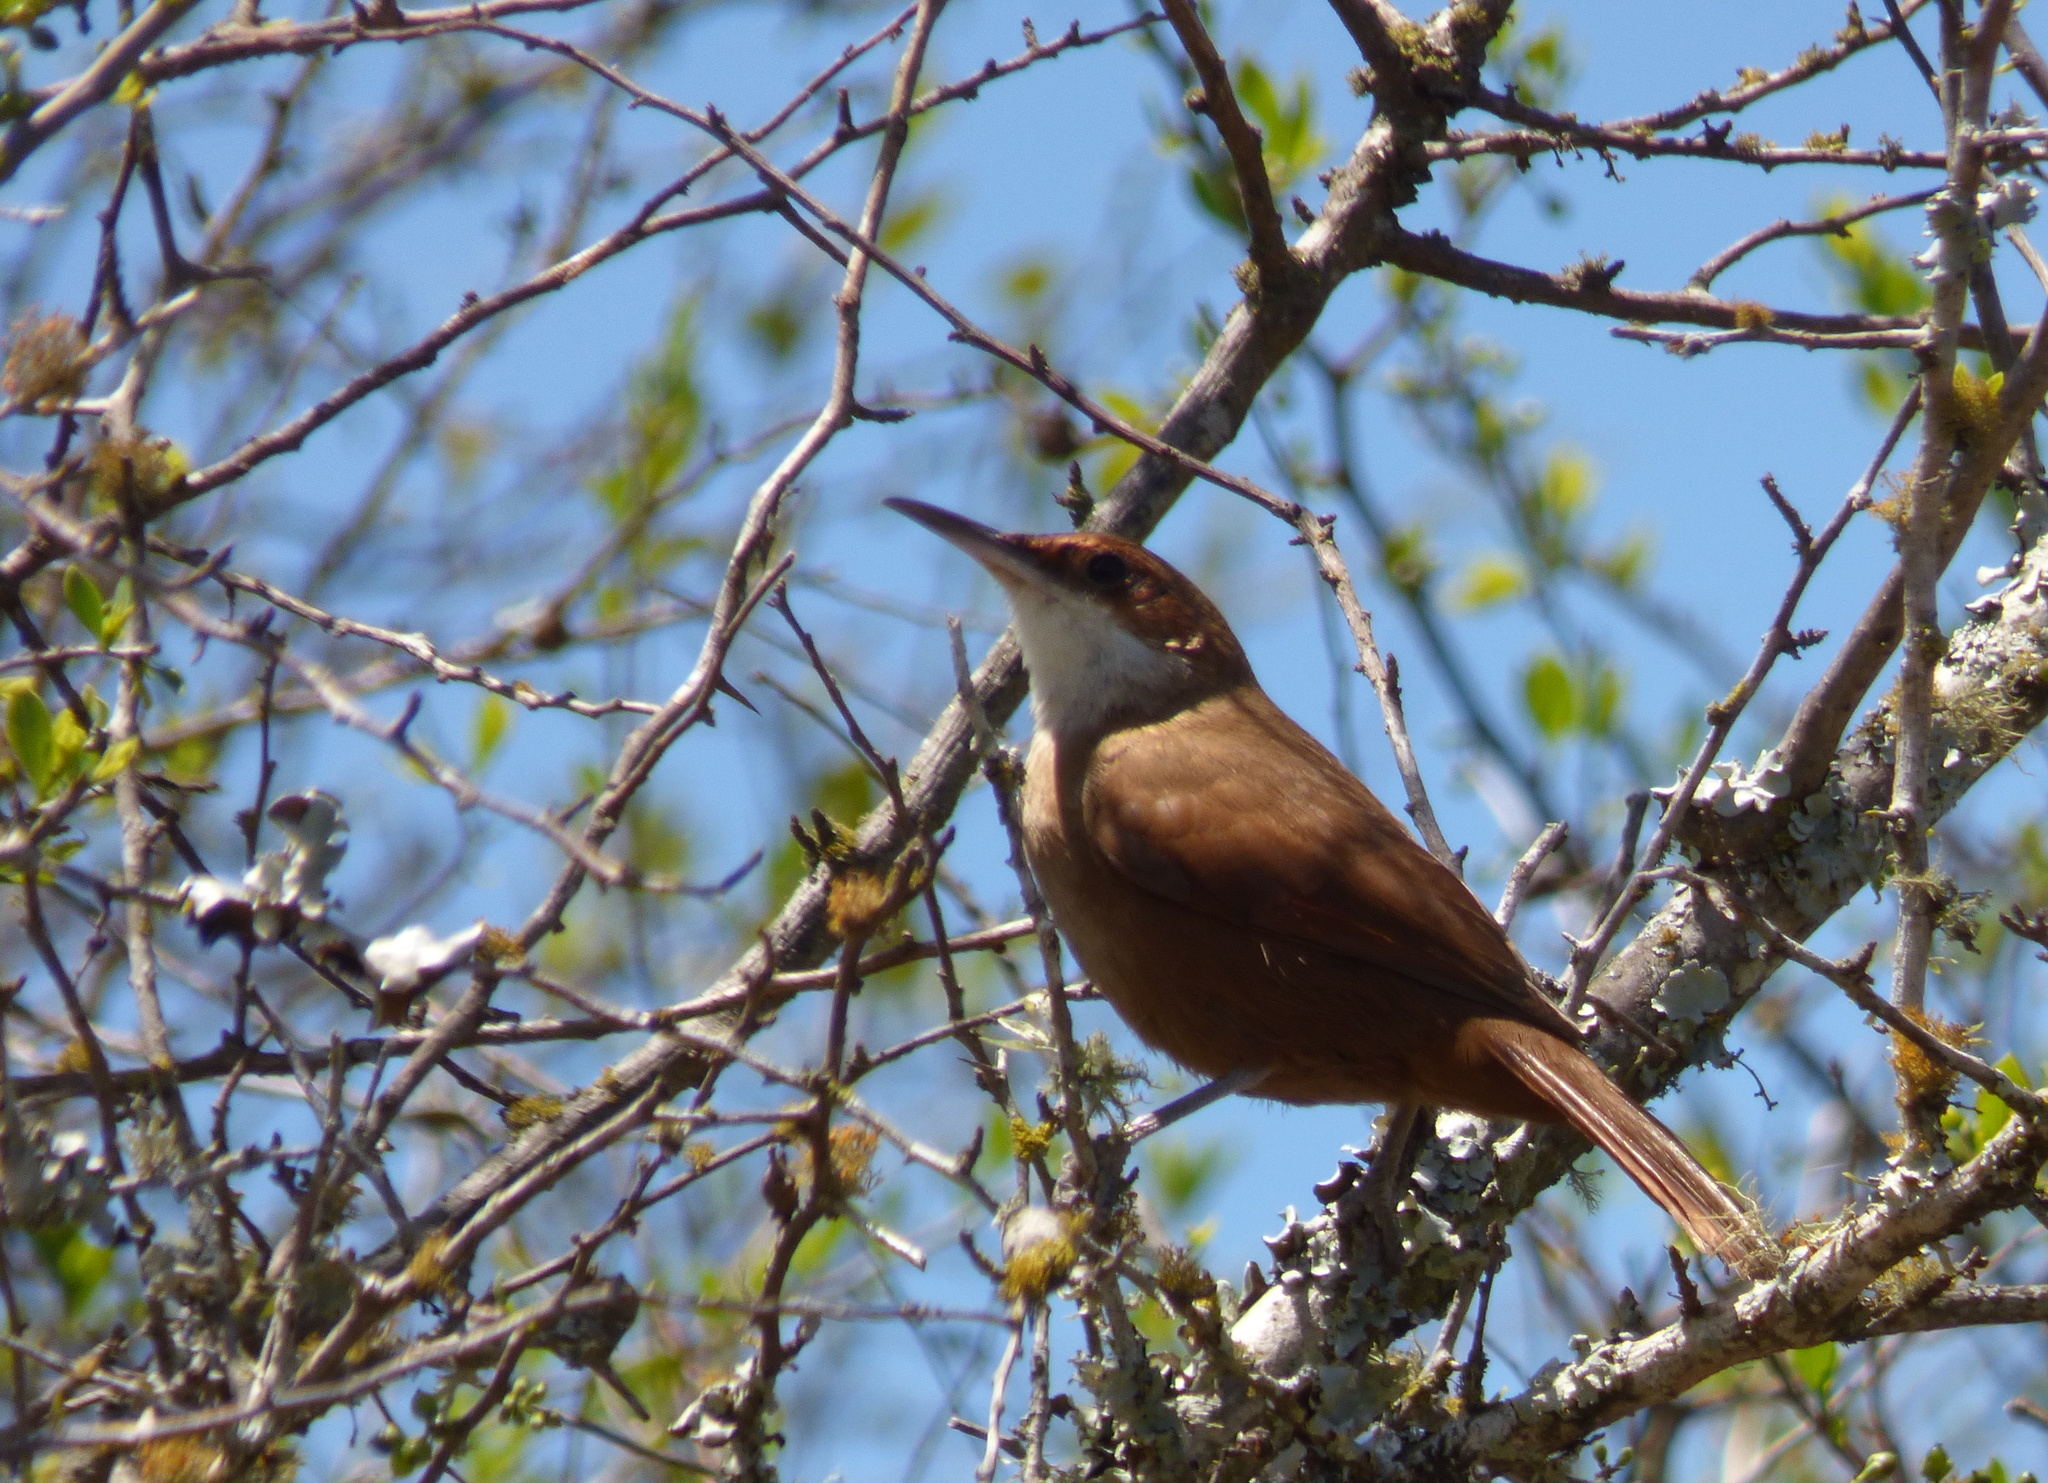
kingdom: Animalia
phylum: Chordata
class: Aves
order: Passeriformes
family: Furnariidae
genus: Upucerthia
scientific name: Upucerthia certhioides
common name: Chaco earthcreeper
